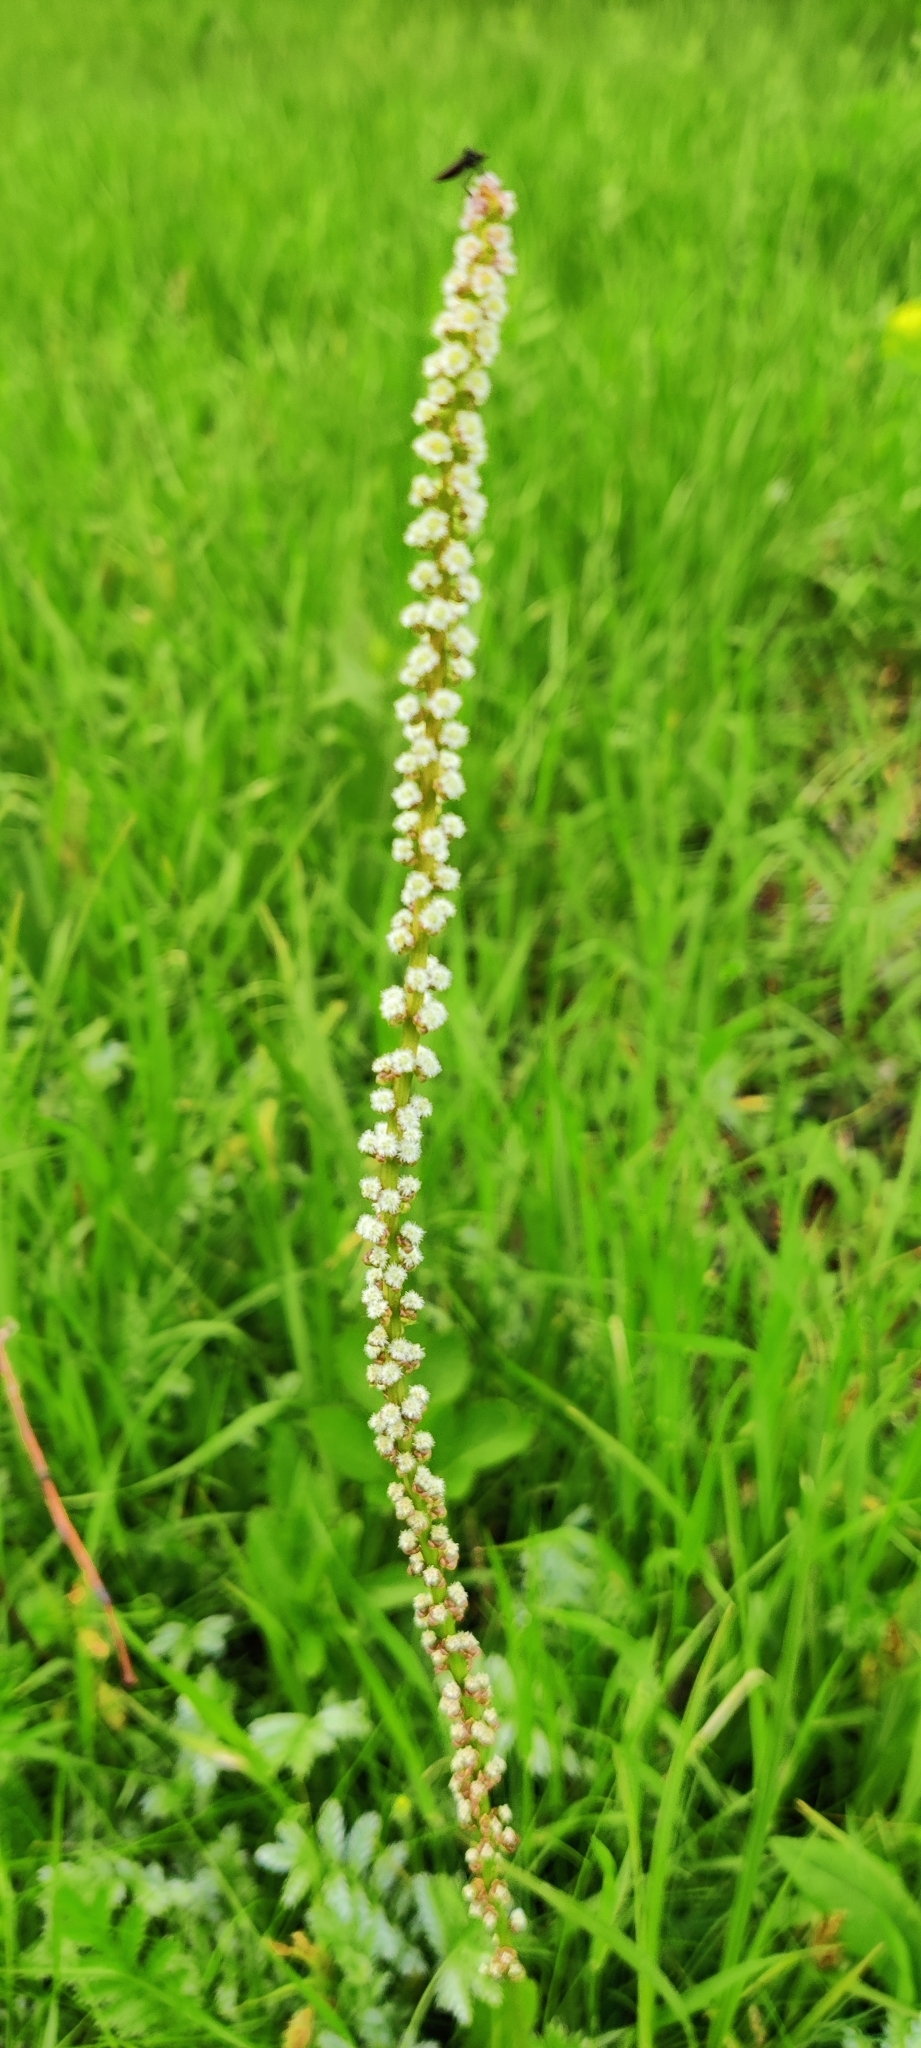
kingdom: Plantae
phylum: Tracheophyta
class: Liliopsida
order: Alismatales
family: Juncaginaceae
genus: Triglochin
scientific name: Triglochin maritima
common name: Sea arrowgrass
